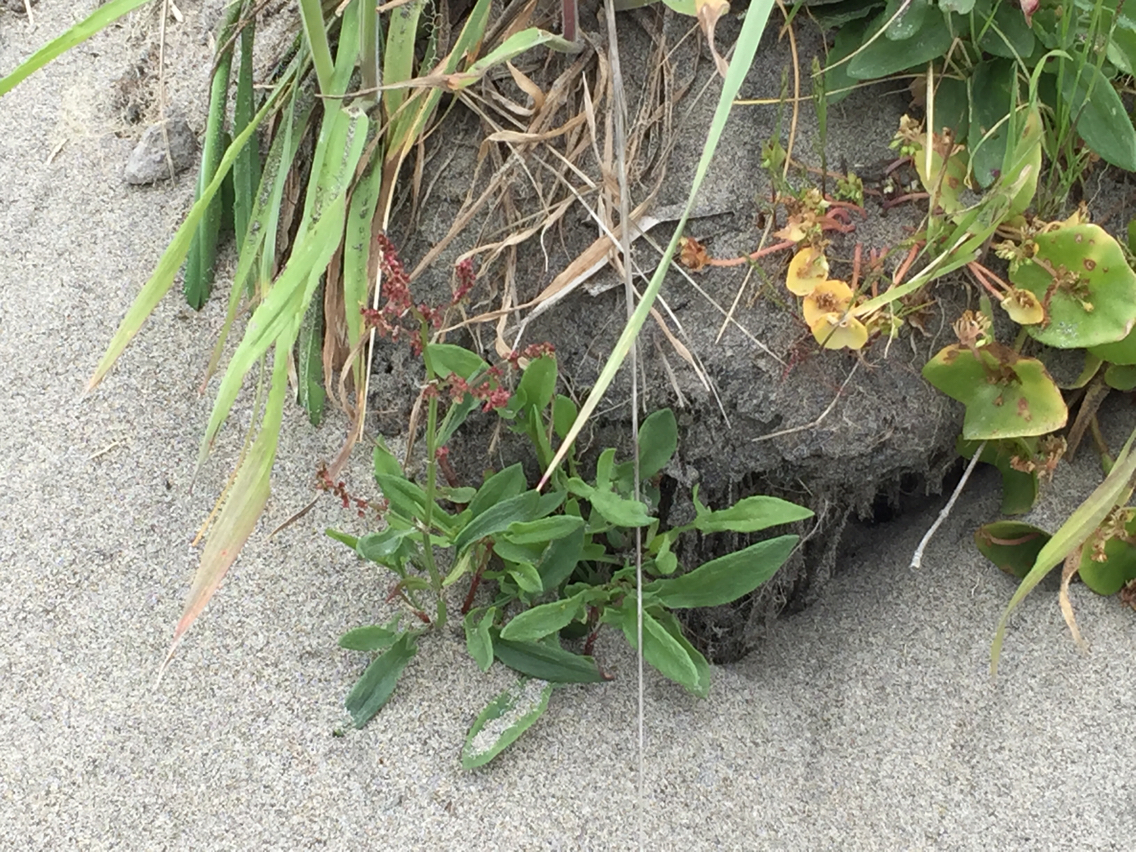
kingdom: Plantae
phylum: Tracheophyta
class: Magnoliopsida
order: Caryophyllales
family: Polygonaceae
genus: Rumex
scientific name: Rumex acetosella
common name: Common sheep sorrel
